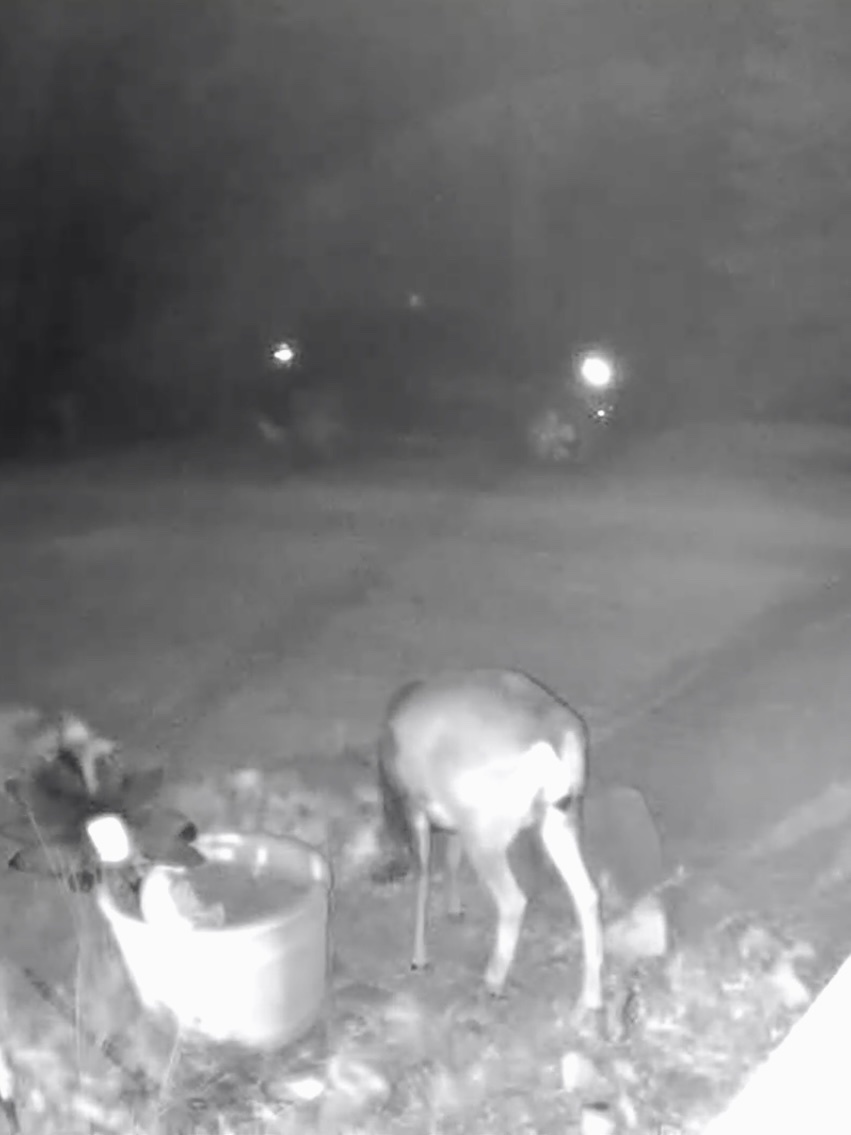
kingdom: Animalia
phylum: Chordata
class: Mammalia
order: Artiodactyla
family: Cervidae
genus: Odocoileus
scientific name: Odocoileus hemionus
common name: Mule deer
